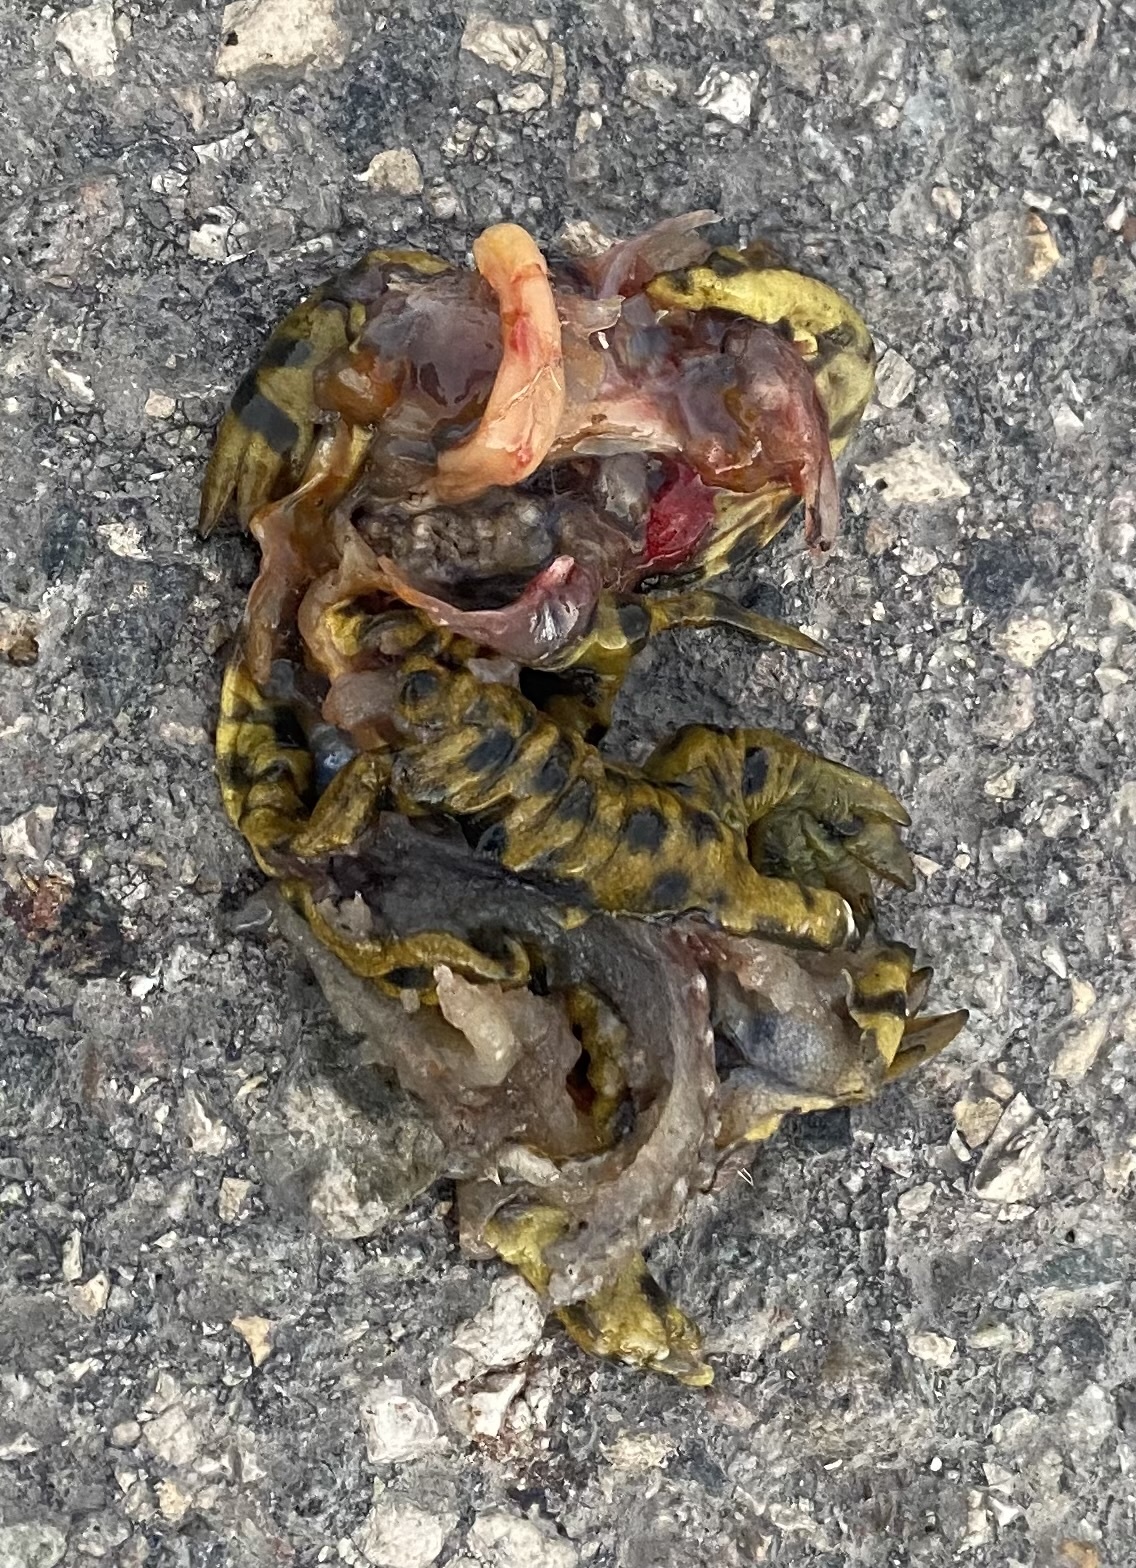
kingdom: Animalia
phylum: Chordata
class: Amphibia
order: Caudata
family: Ambystomatidae
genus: Ambystoma
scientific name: Ambystoma mavortium
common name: Western tiger salamander
